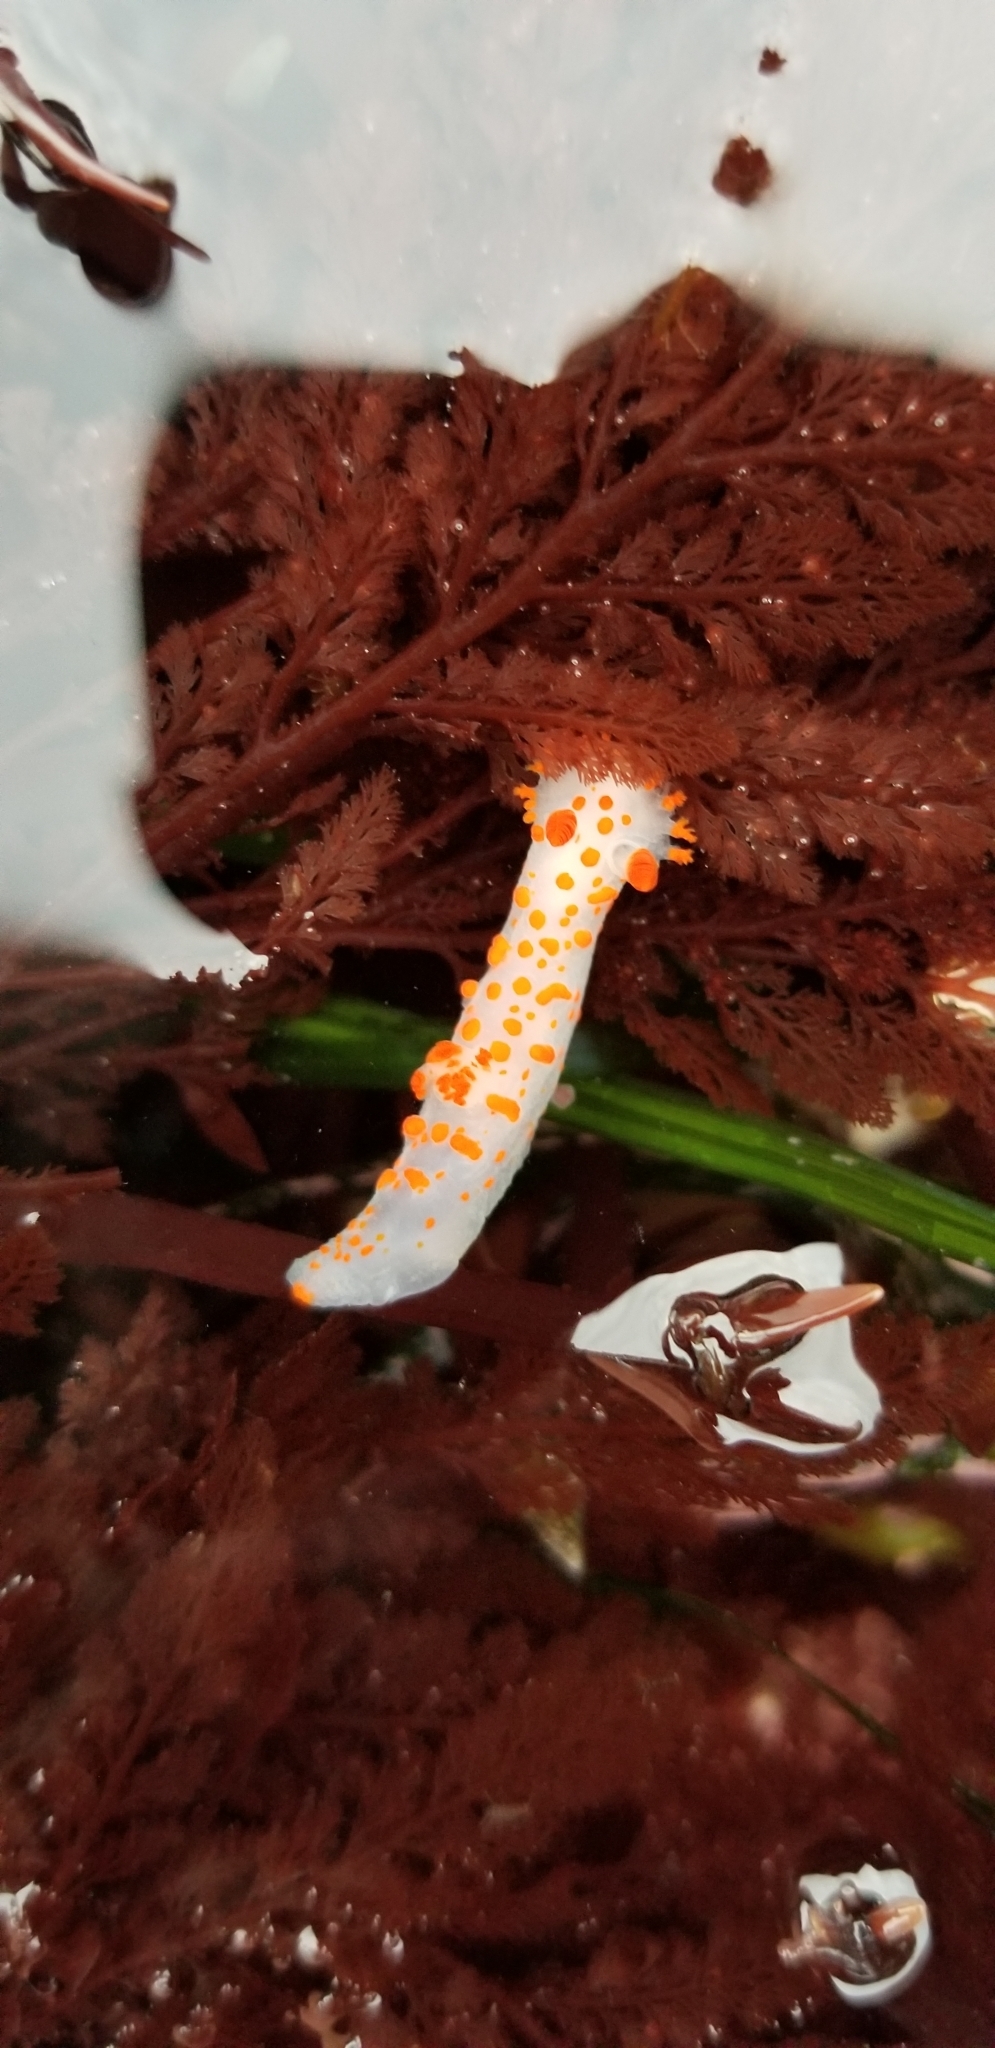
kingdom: Animalia
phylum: Mollusca
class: Gastropoda
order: Nudibranchia
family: Polyceridae
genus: Triopha
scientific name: Triopha catalinae
